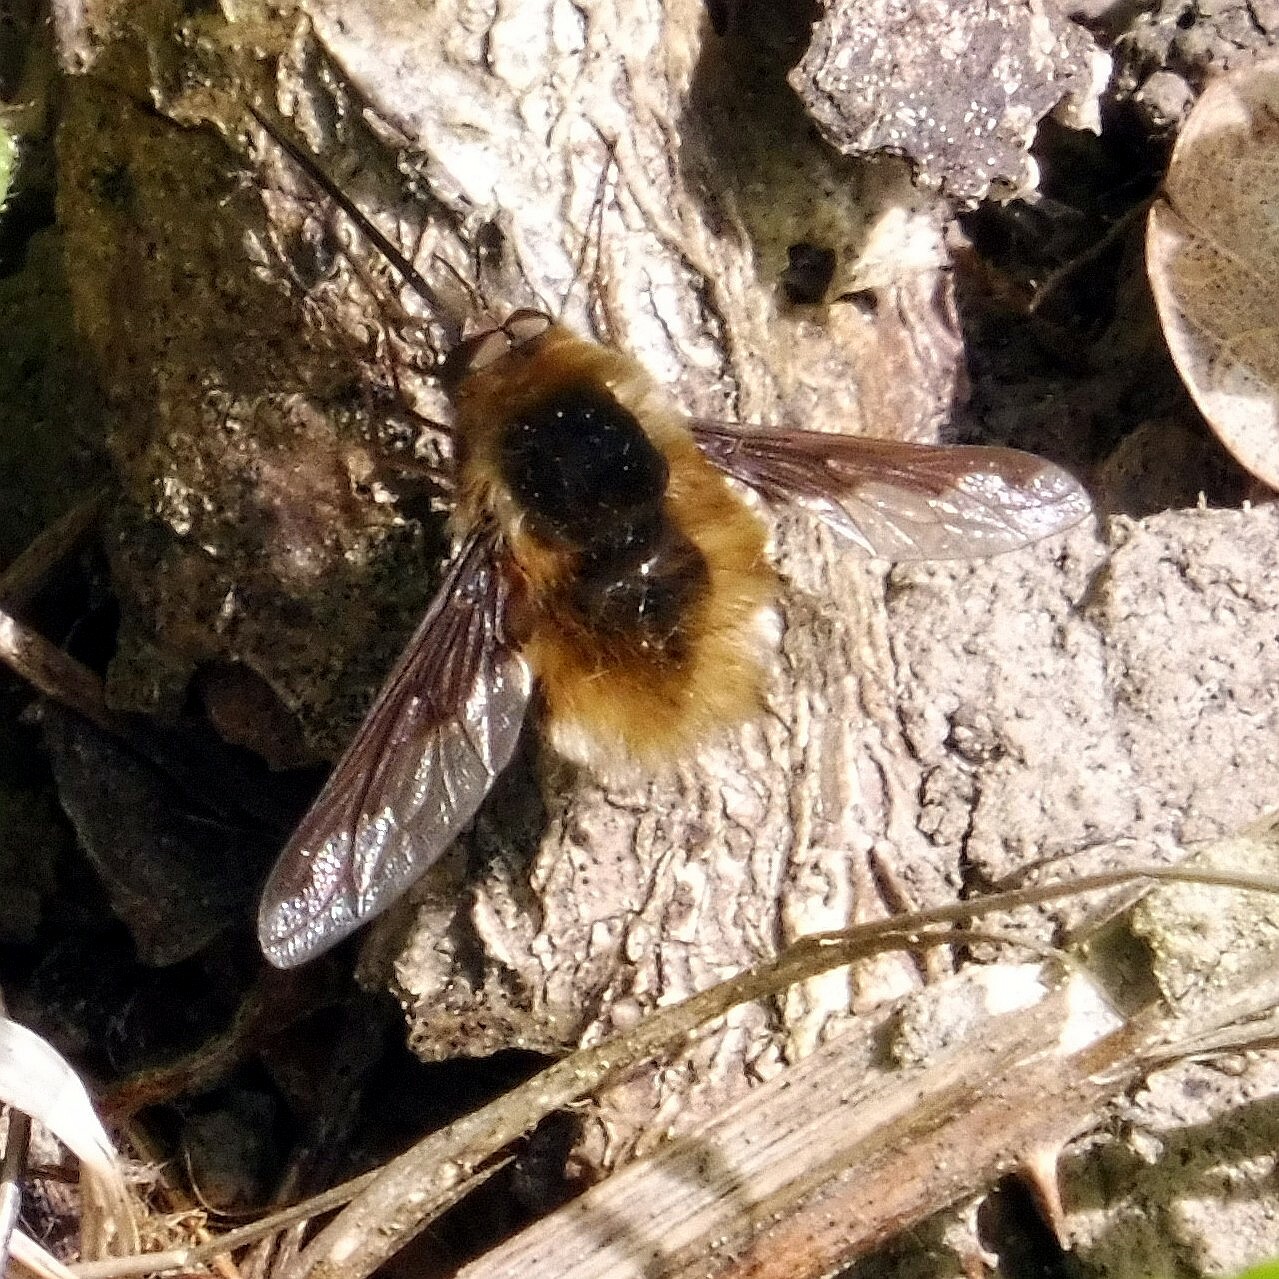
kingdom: Animalia
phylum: Arthropoda
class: Insecta
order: Diptera
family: Bombyliidae
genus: Bombylius
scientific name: Bombylius major
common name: Bee fly
